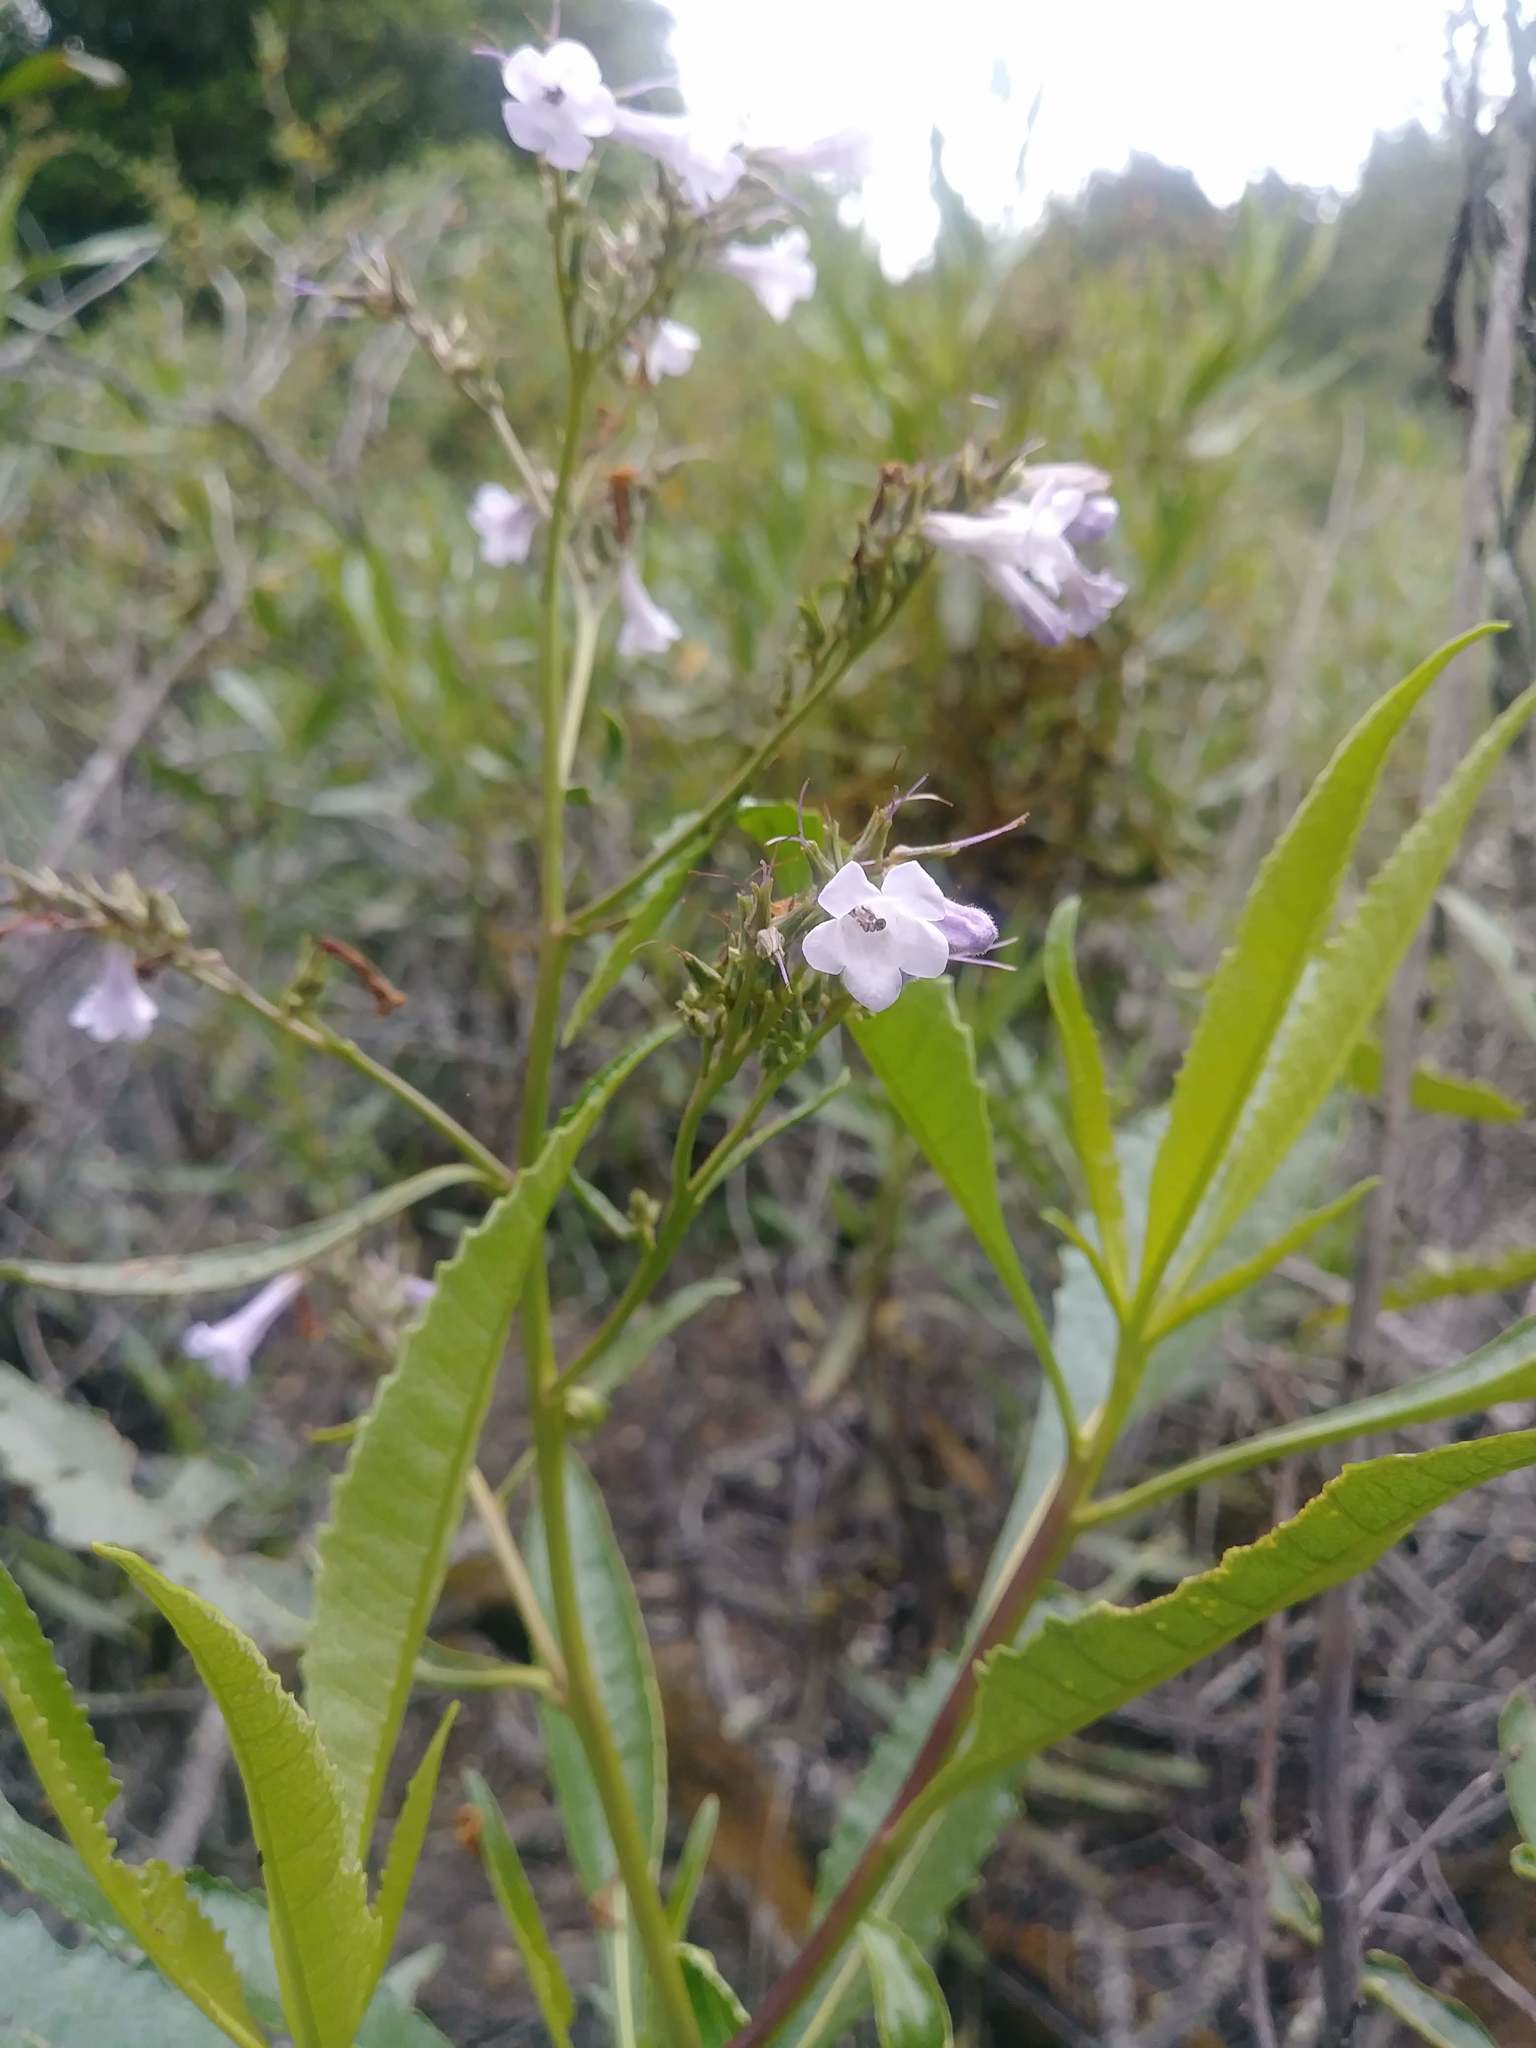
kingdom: Plantae
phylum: Tracheophyta
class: Magnoliopsida
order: Boraginales
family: Namaceae
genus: Eriodictyon
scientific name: Eriodictyon californicum
